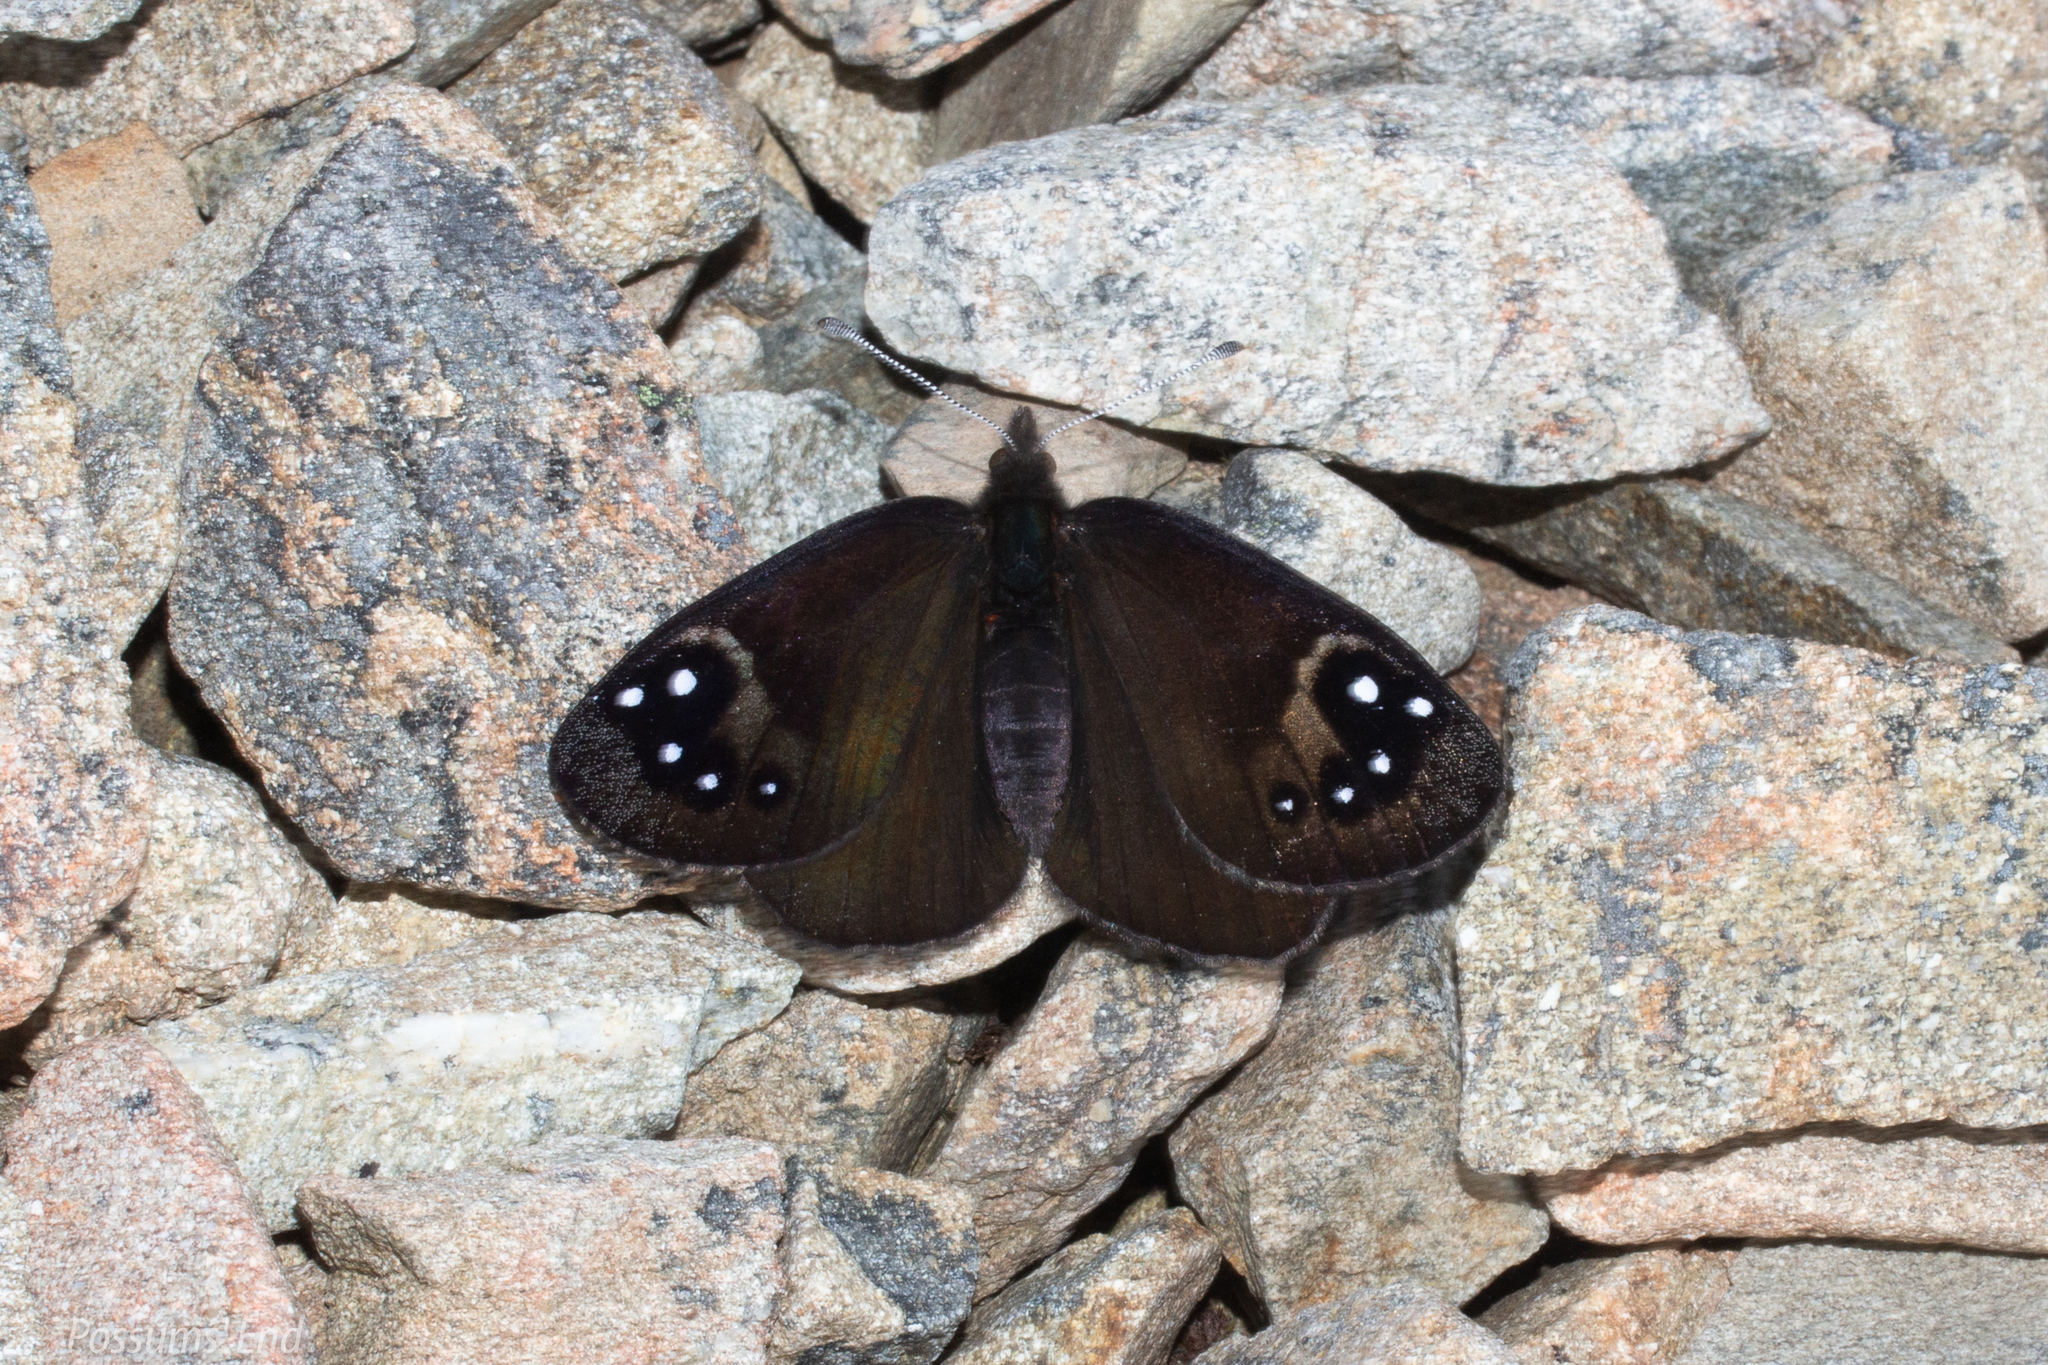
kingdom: Animalia
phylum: Arthropoda
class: Insecta
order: Lepidoptera
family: Nymphalidae
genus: Erebia
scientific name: Erebia Percnodaimon merula
